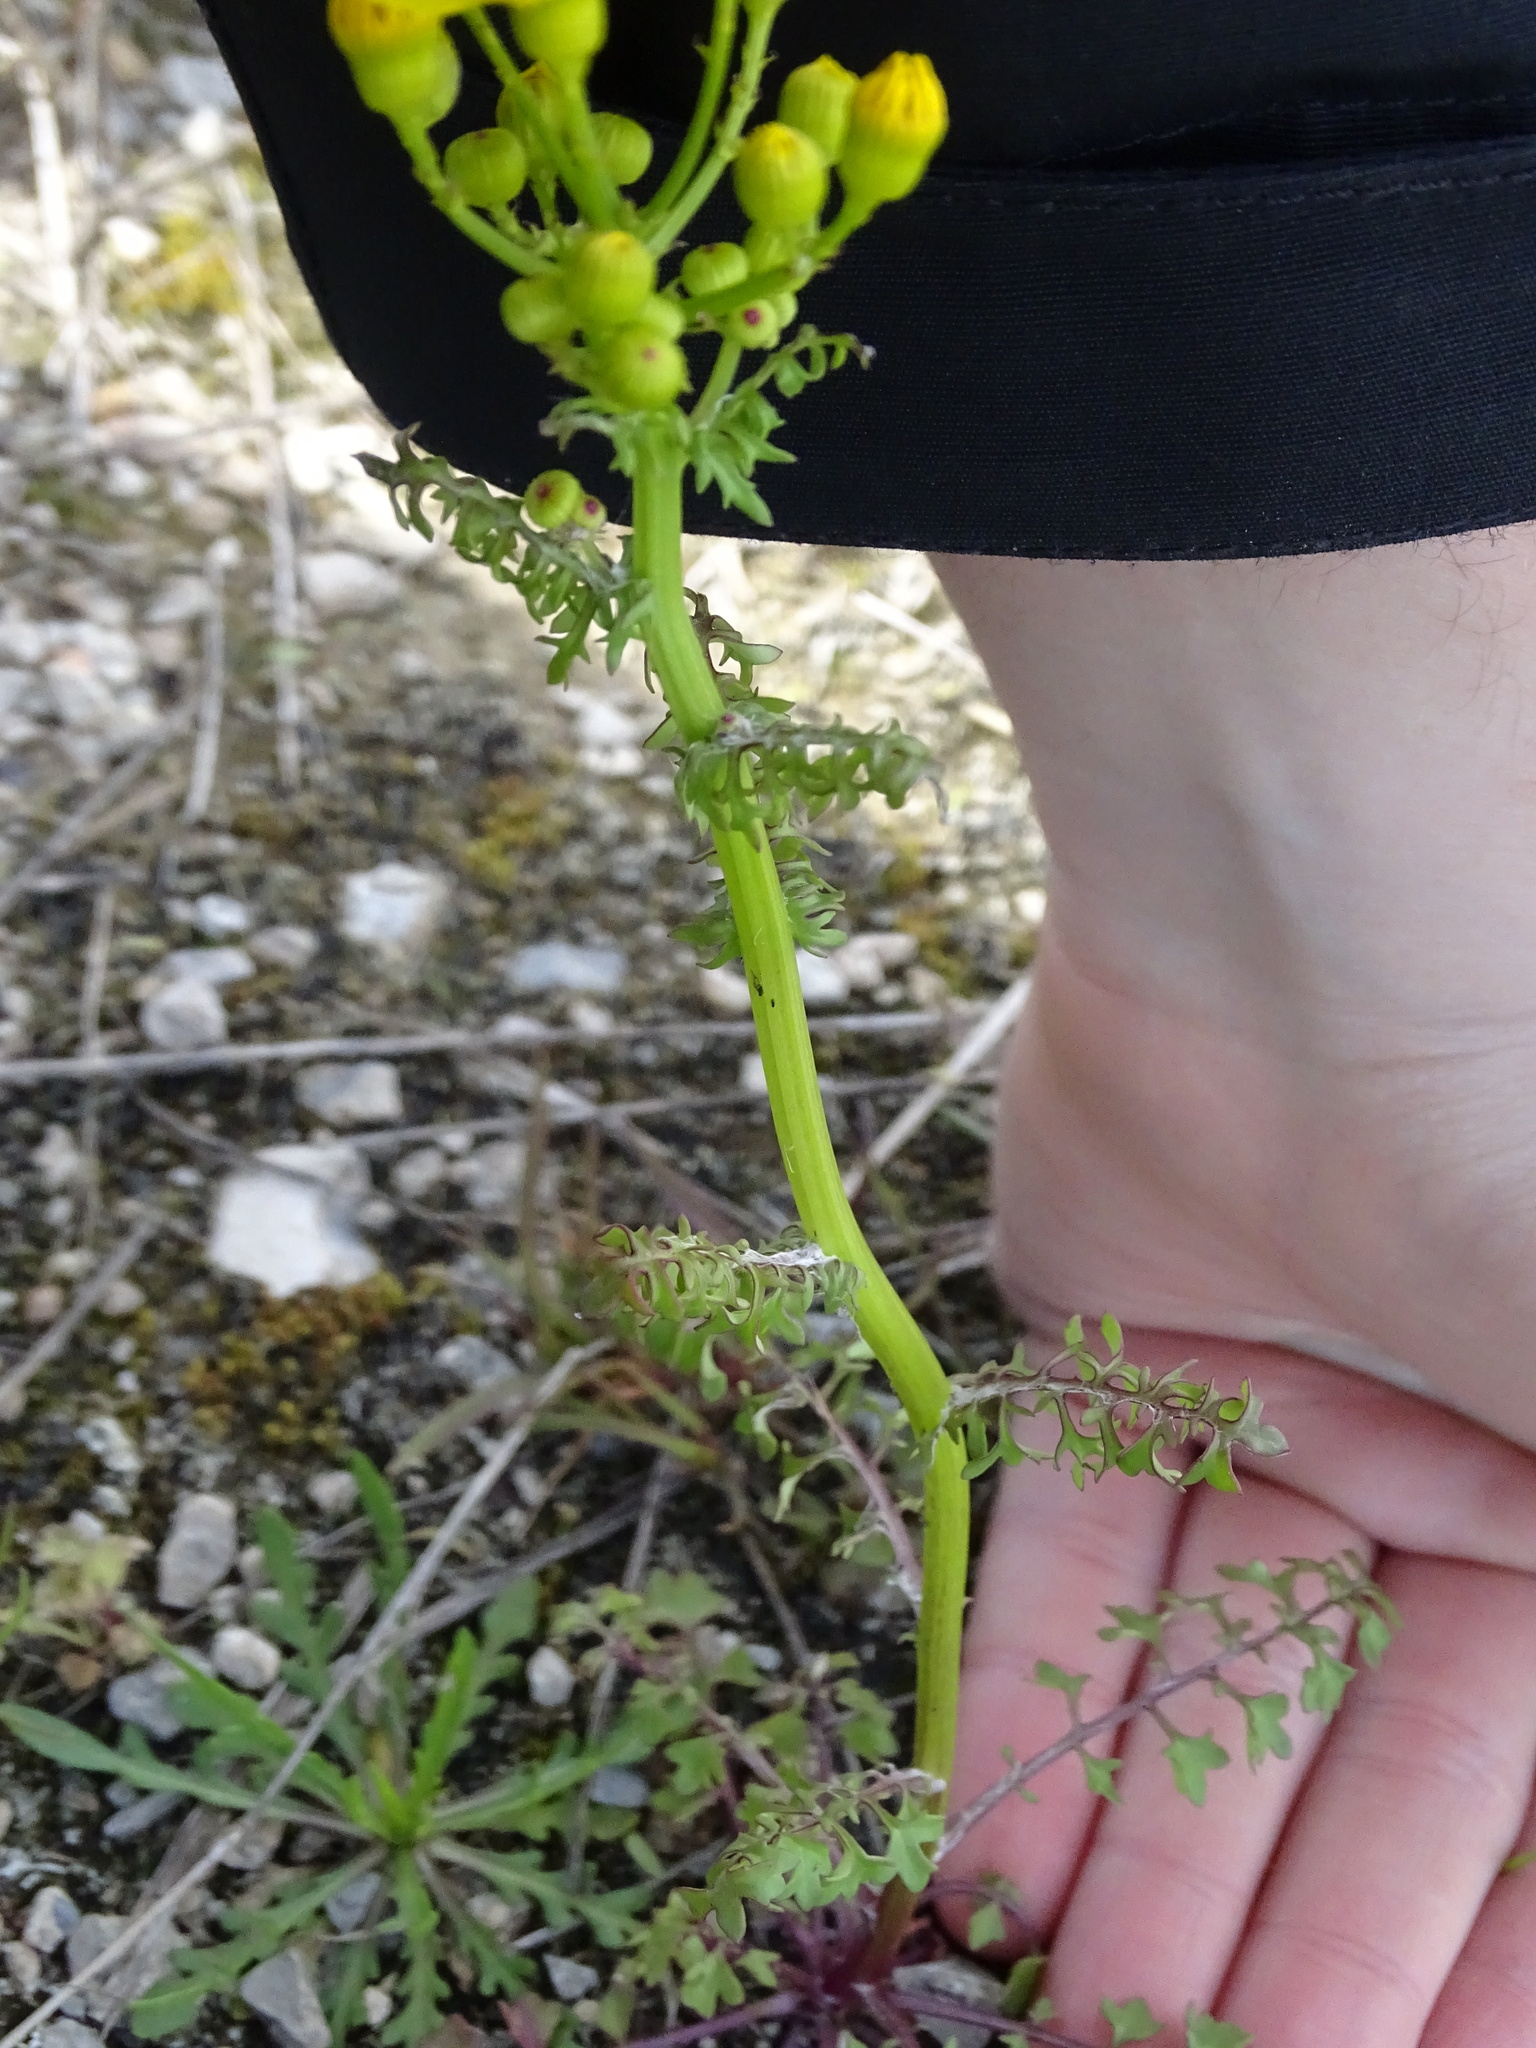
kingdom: Plantae
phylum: Tracheophyta
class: Magnoliopsida
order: Asterales
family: Asteraceae
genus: Packera
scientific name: Packera tampicana
